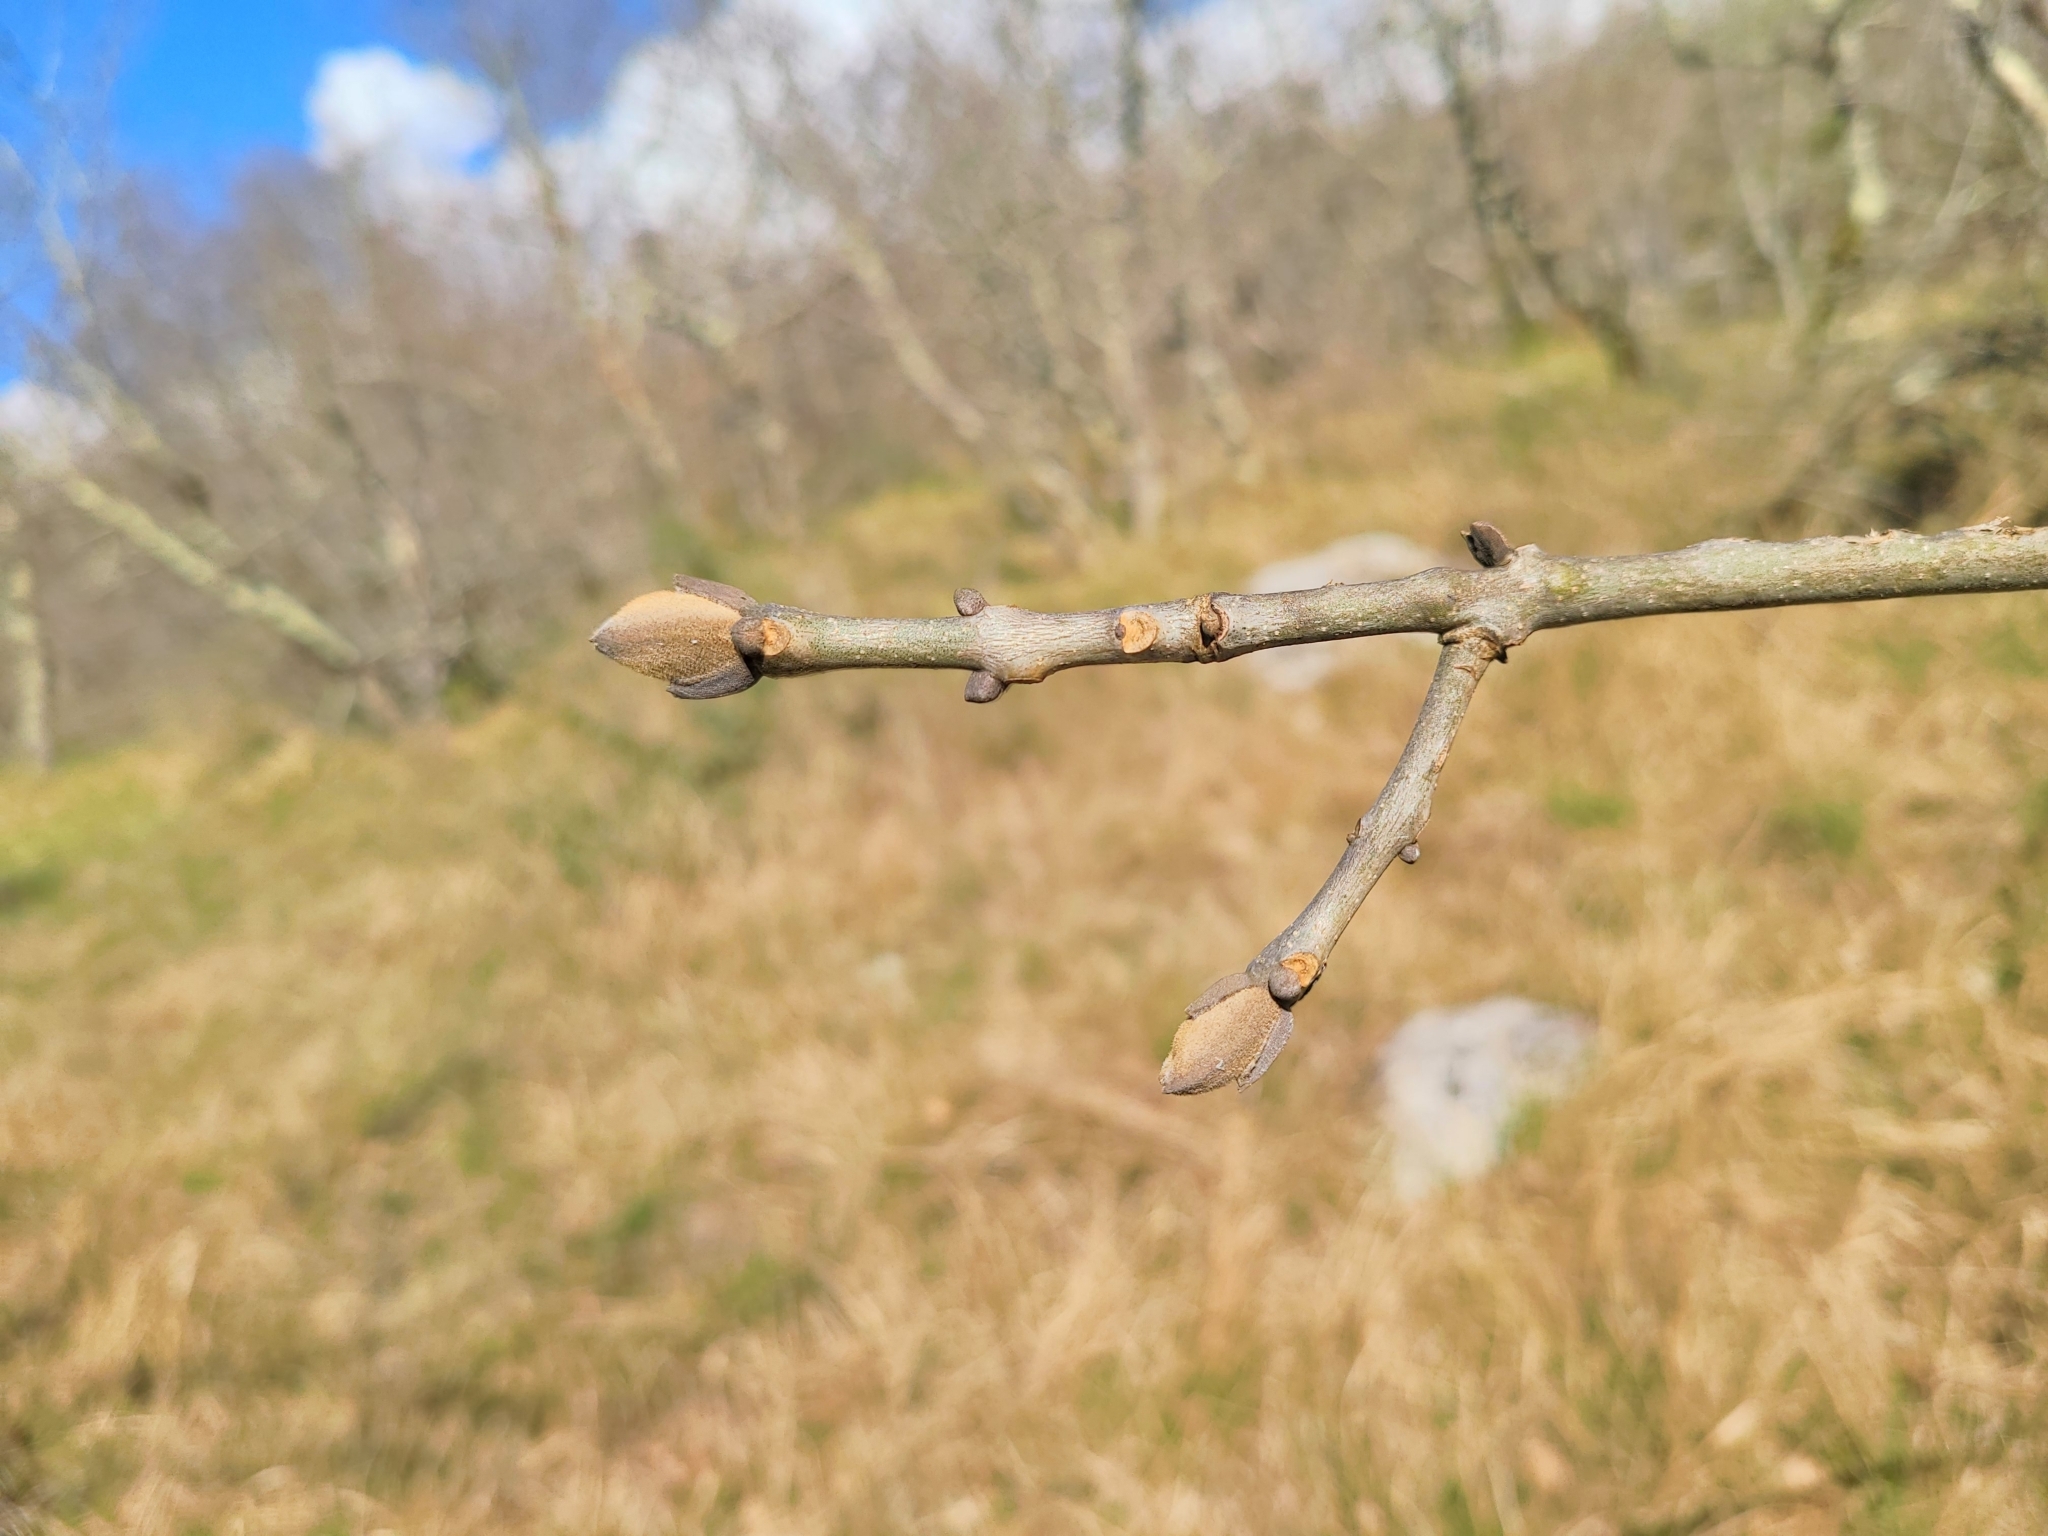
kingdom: Plantae
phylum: Tracheophyta
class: Magnoliopsida
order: Lamiales
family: Oleaceae
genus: Fraxinus
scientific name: Fraxinus ornus
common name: Manna ash
